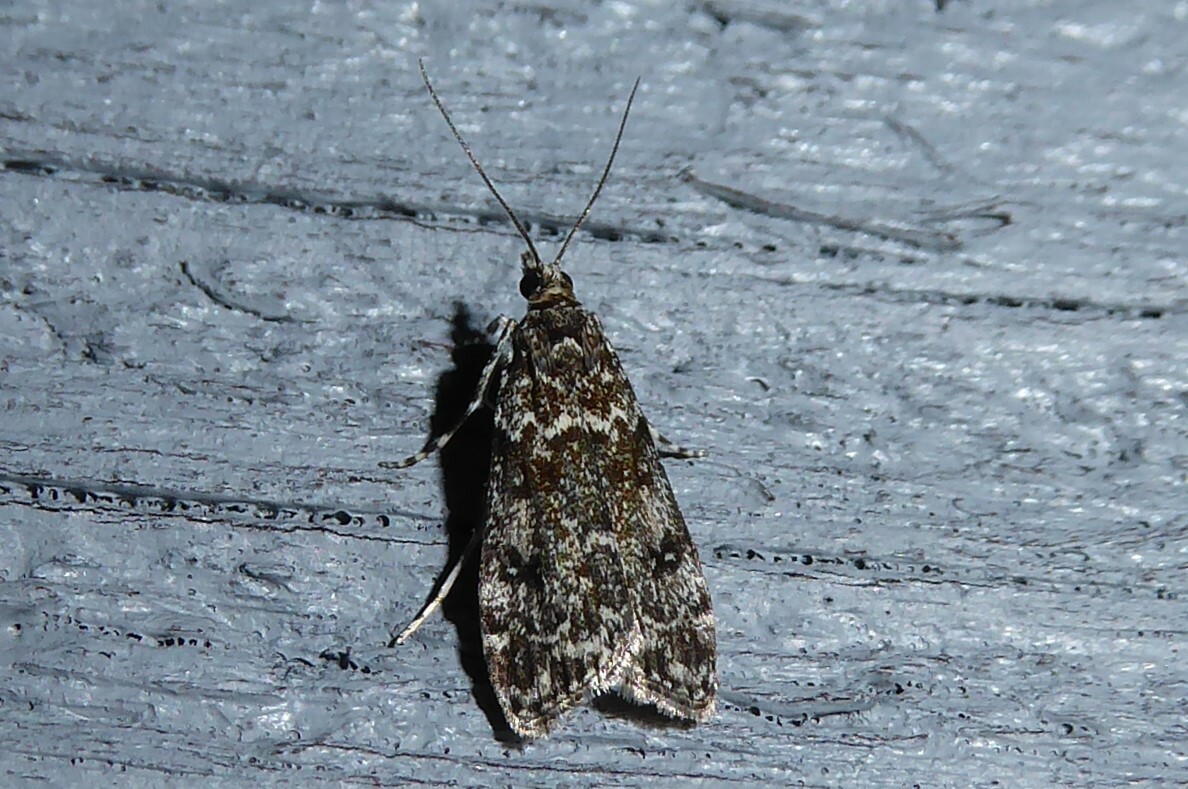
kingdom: Animalia
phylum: Arthropoda
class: Insecta
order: Lepidoptera
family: Crambidae
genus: Eudonia
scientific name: Eudonia philerga
